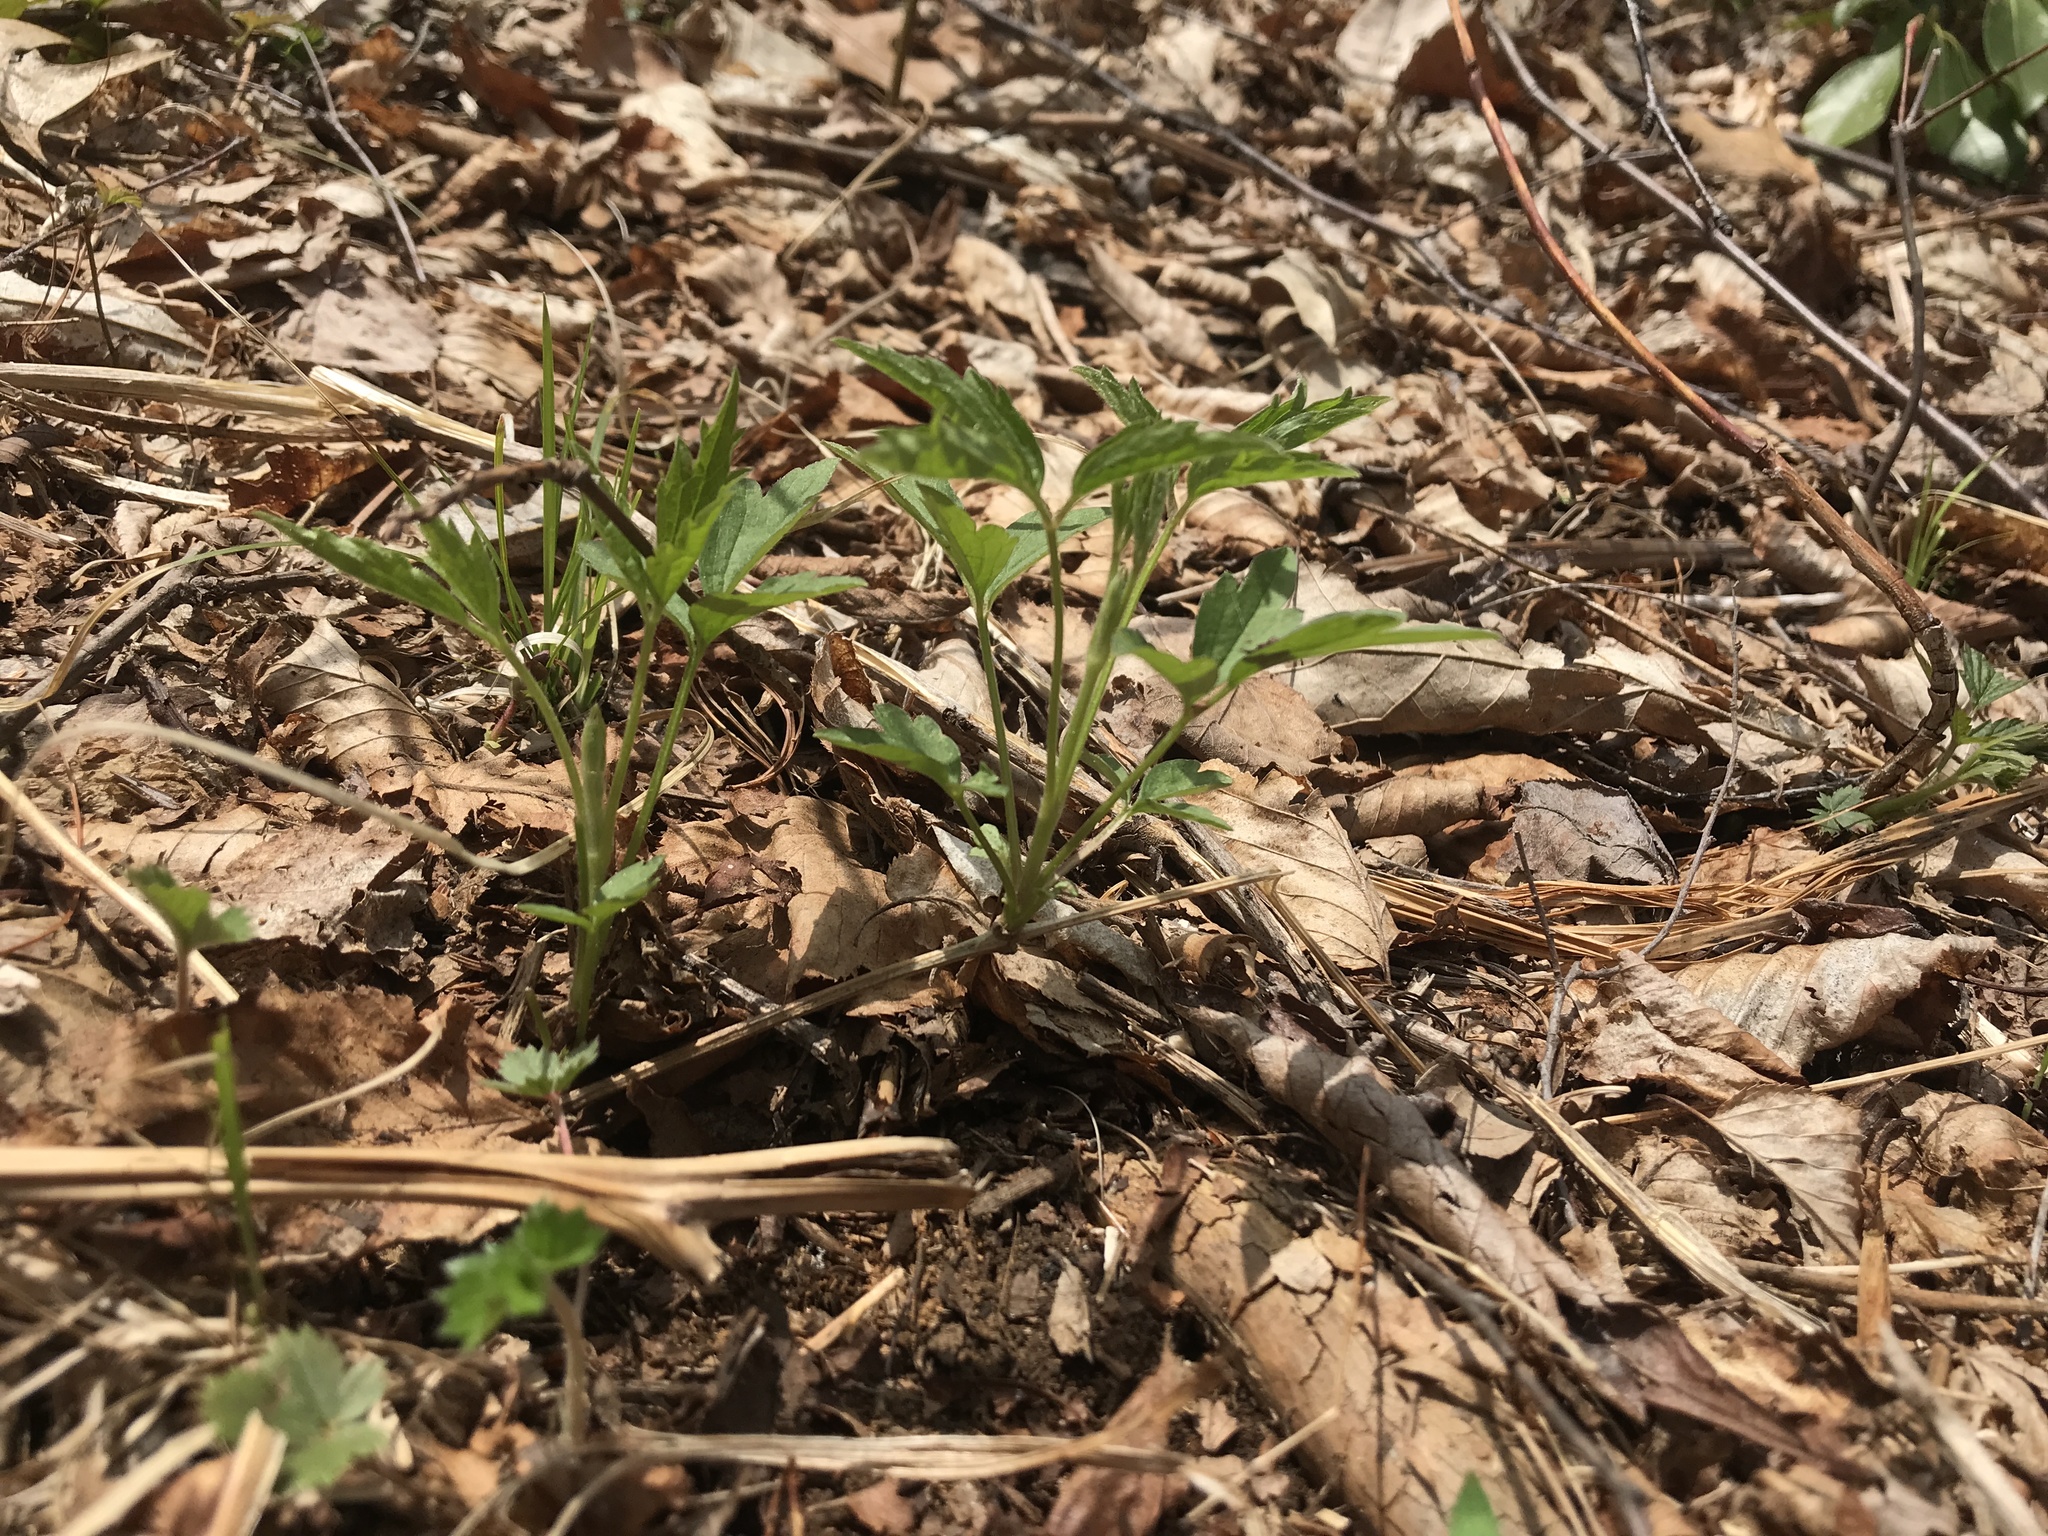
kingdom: Plantae
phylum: Tracheophyta
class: Magnoliopsida
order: Ranunculales
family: Ranunculaceae
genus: Clematis
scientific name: Clematis virginiana
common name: Virgin's-bower
